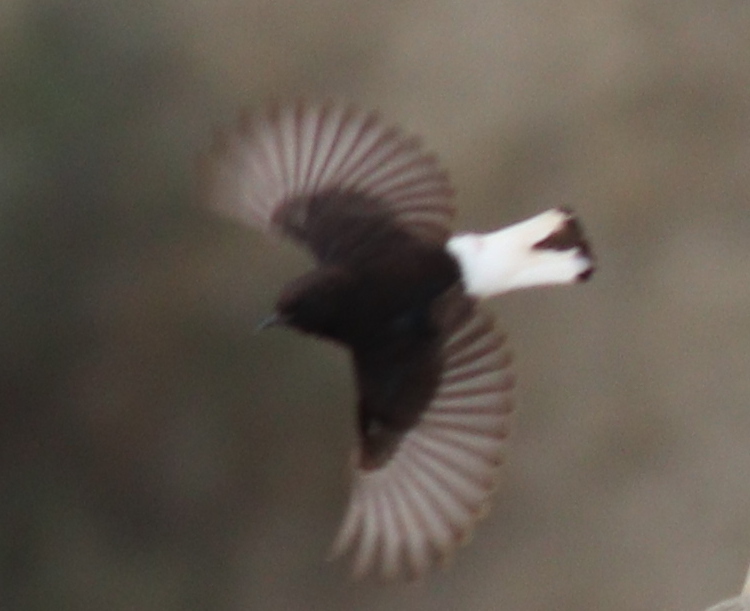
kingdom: Animalia
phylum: Chordata
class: Aves
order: Passeriformes
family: Muscicapidae
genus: Oenanthe
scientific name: Oenanthe leucura
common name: Black wheatear
